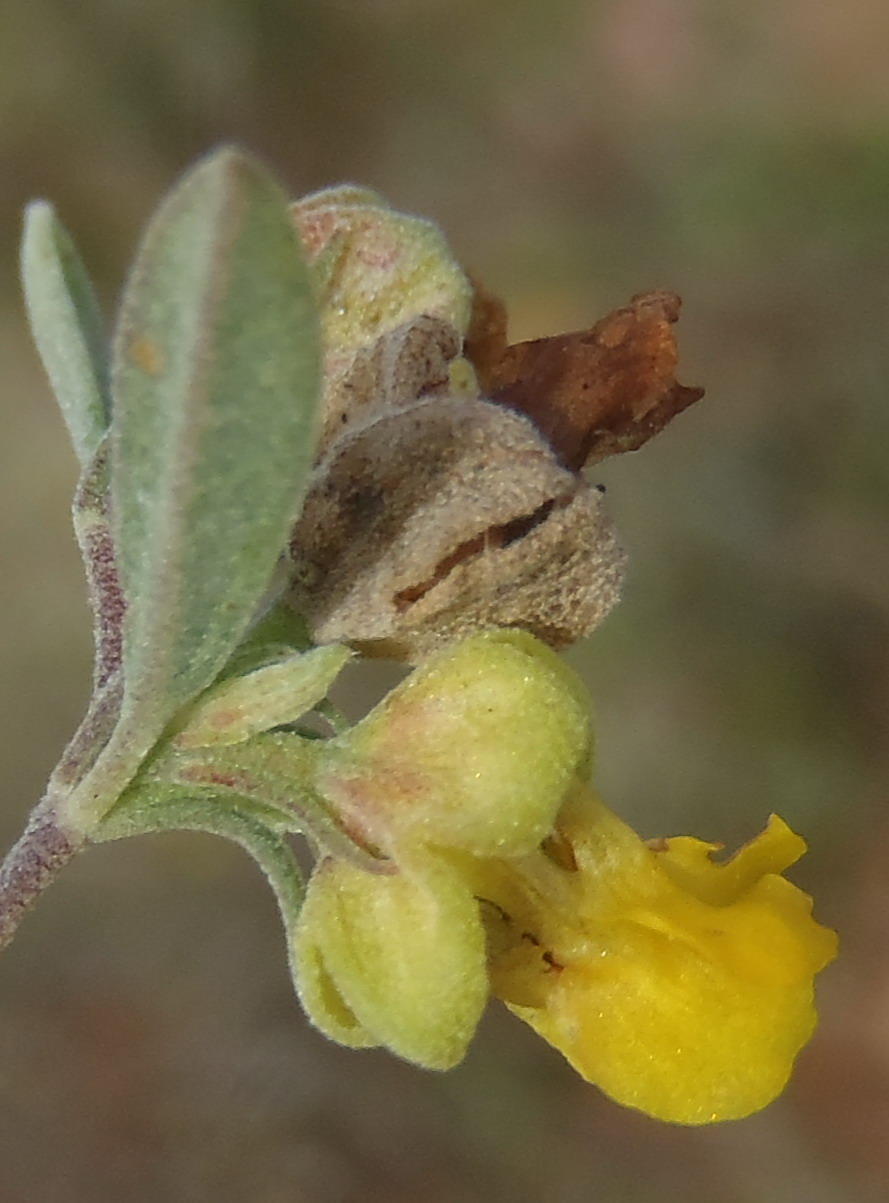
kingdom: Plantae
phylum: Tracheophyta
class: Magnoliopsida
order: Malvales
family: Malvaceae
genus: Hermannia
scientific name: Hermannia lavandulifolia
